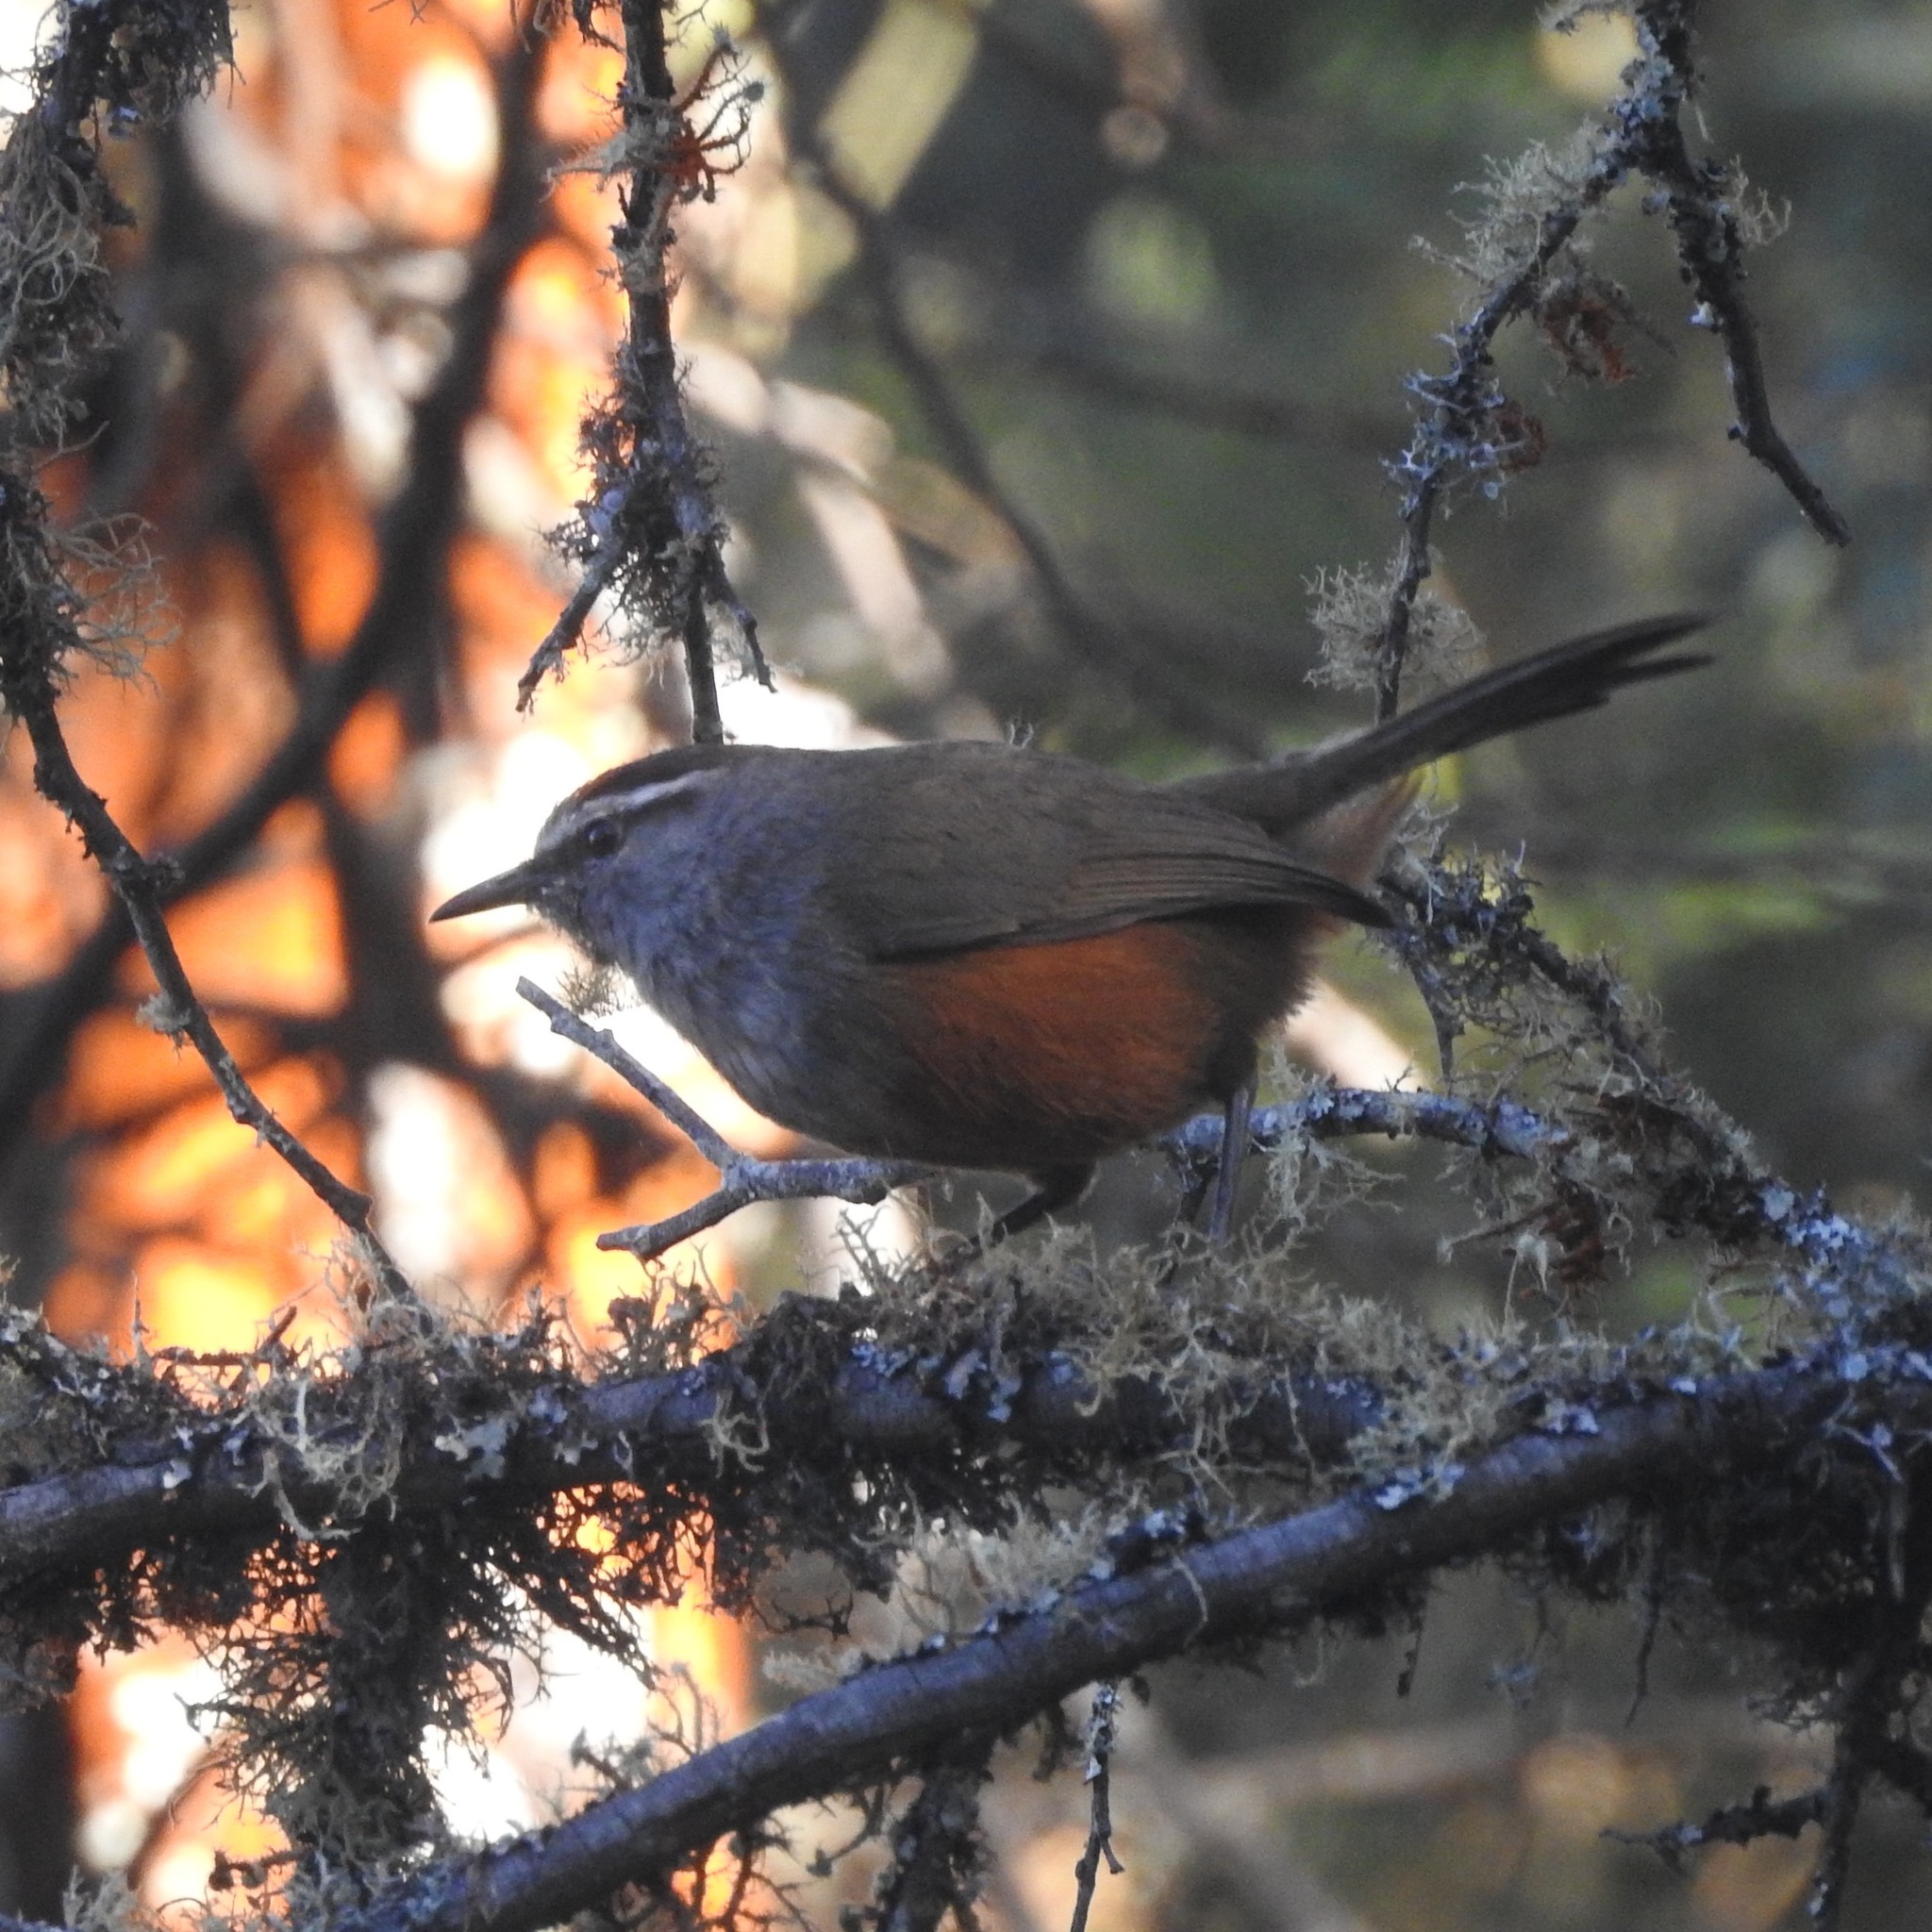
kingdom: Animalia
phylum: Chordata
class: Aves
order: Passeriformes
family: Leiothrichidae
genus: Trochalopteron
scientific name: Trochalopteron fairbanki
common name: Kerala laughingthrush
